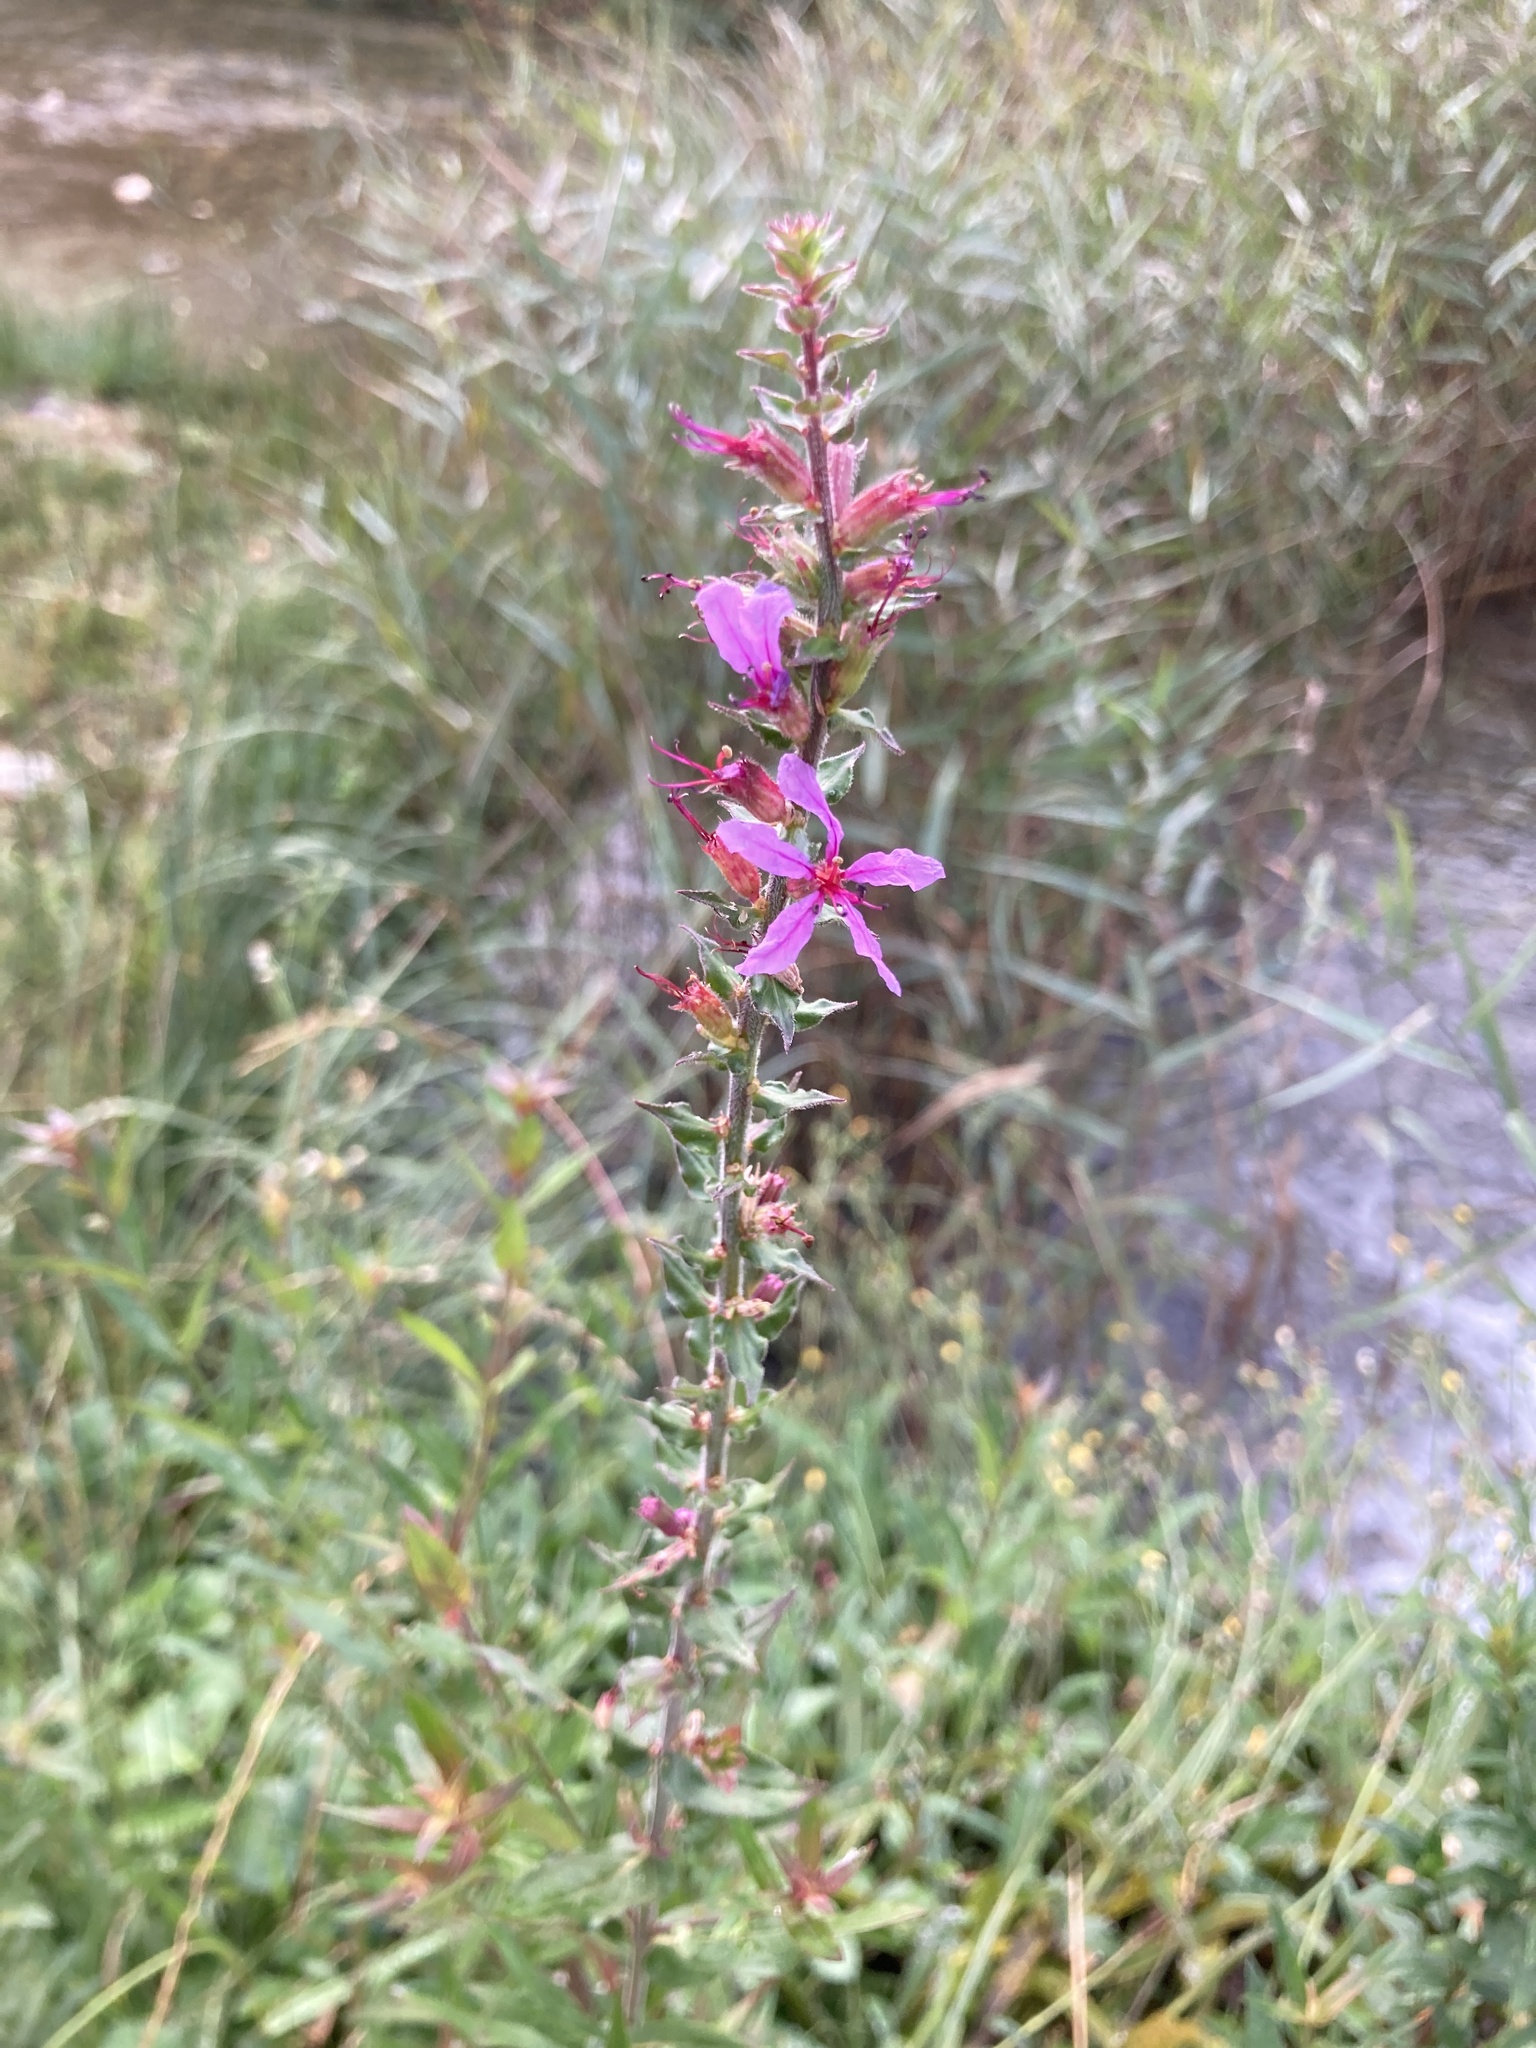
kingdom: Plantae
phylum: Tracheophyta
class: Magnoliopsida
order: Myrtales
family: Lythraceae
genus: Lythrum
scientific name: Lythrum salicaria
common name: Purple loosestrife
